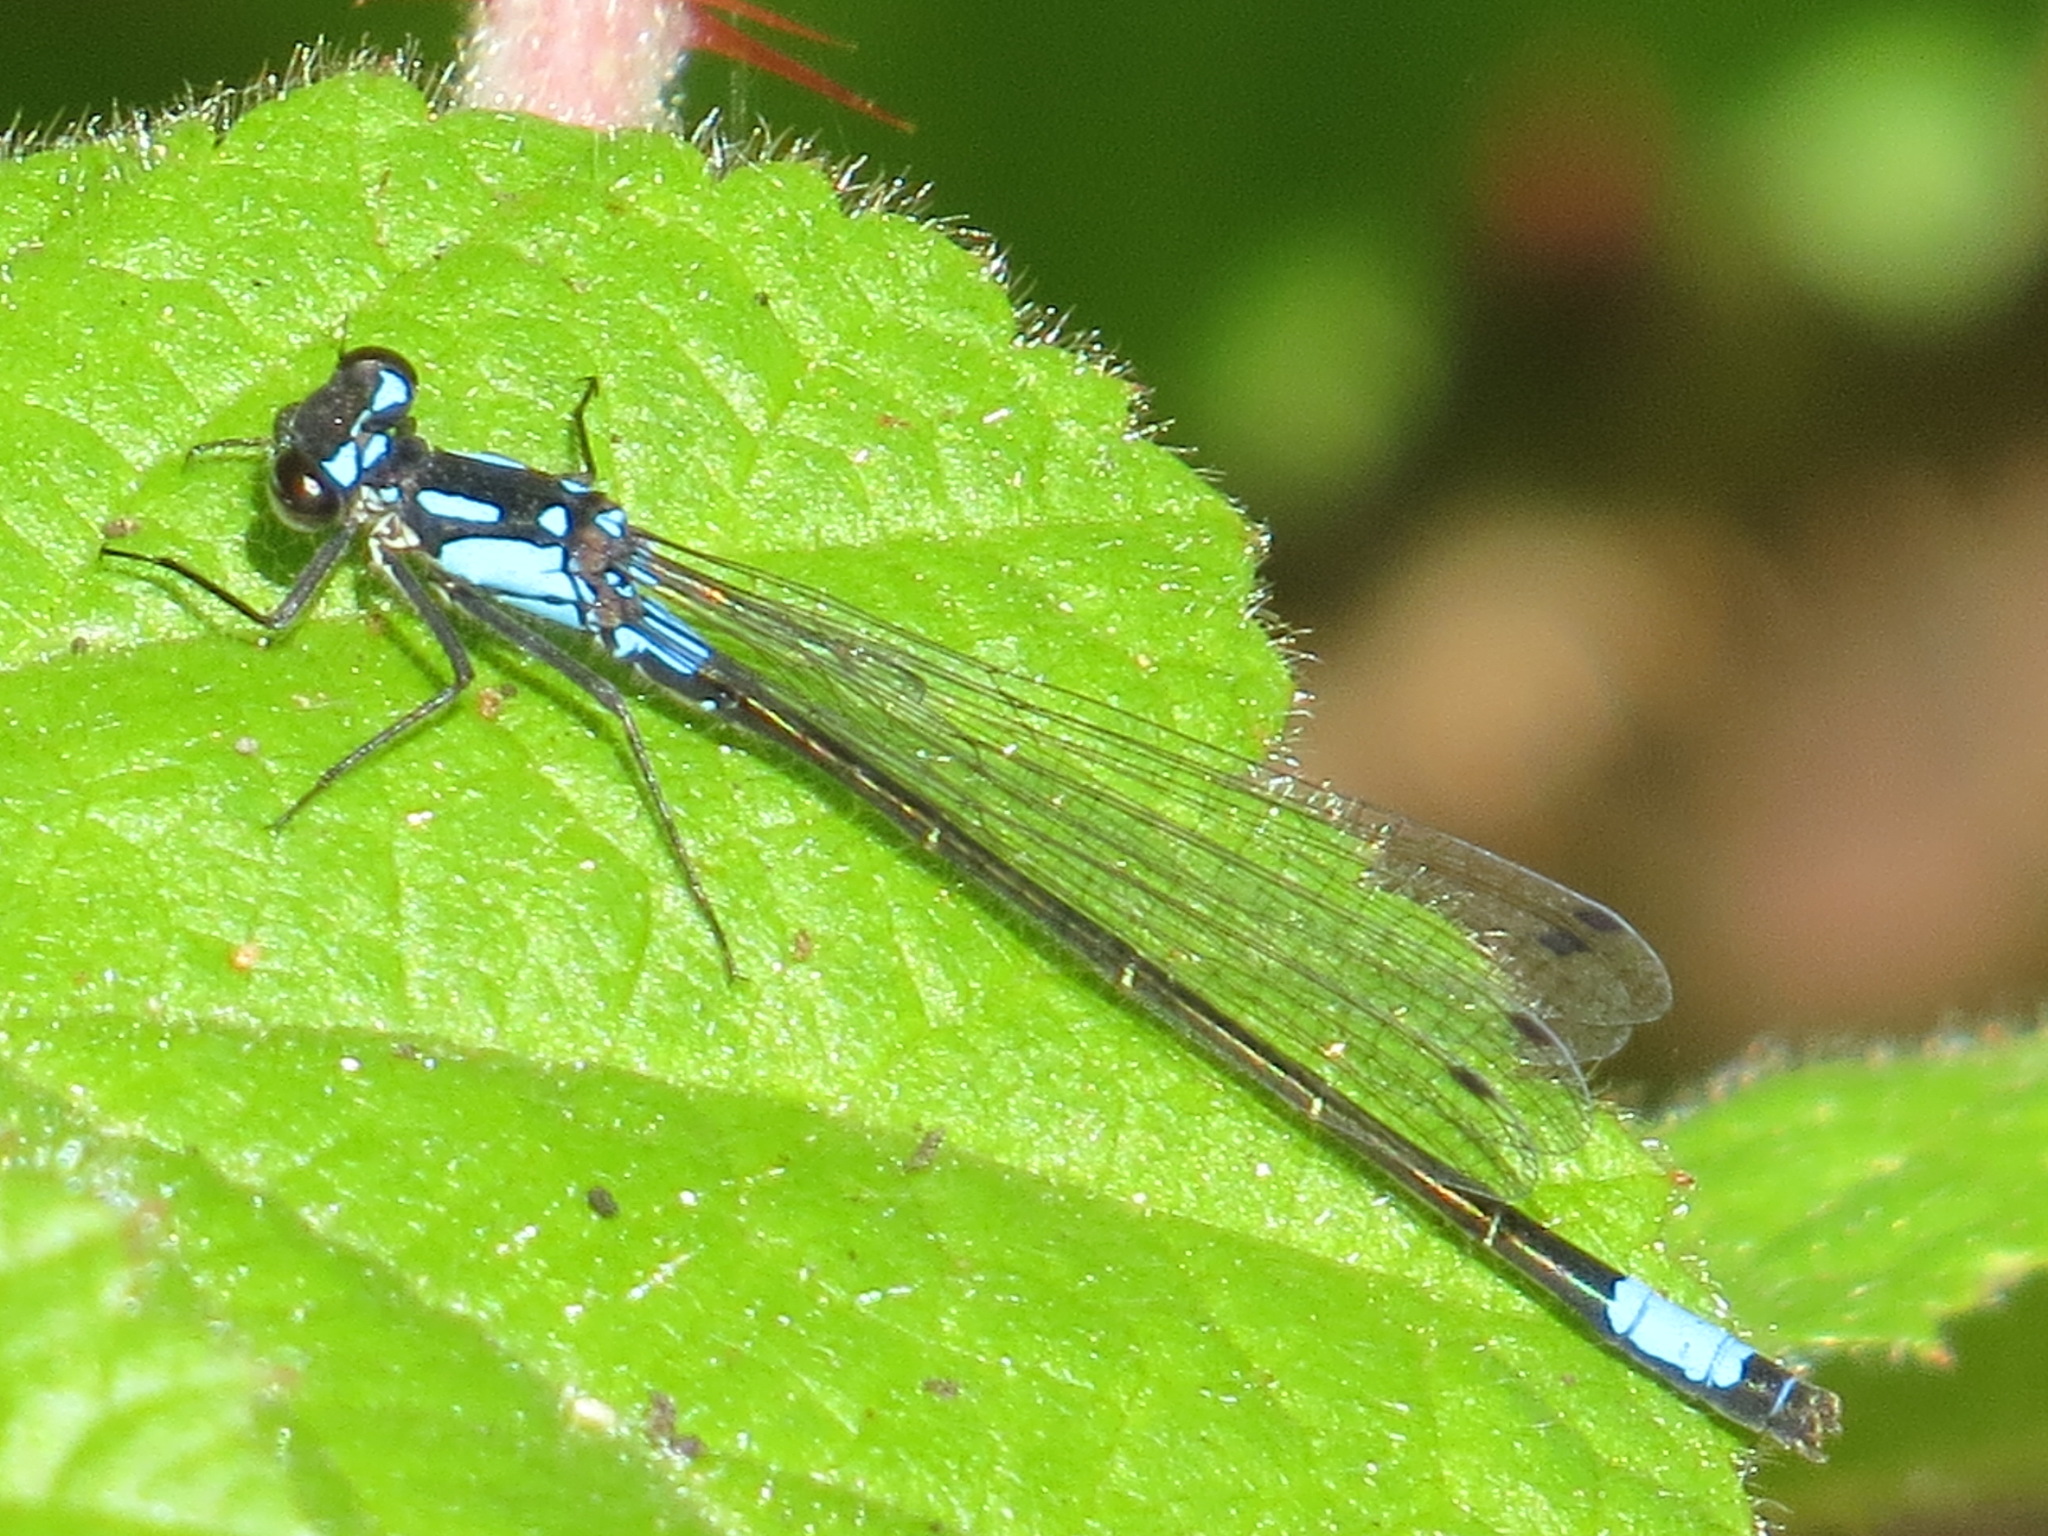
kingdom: Animalia
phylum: Arthropoda
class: Insecta
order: Odonata
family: Coenagrionidae
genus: Zoniagrion
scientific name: Zoniagrion exclamationis
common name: Exclamation damsel
